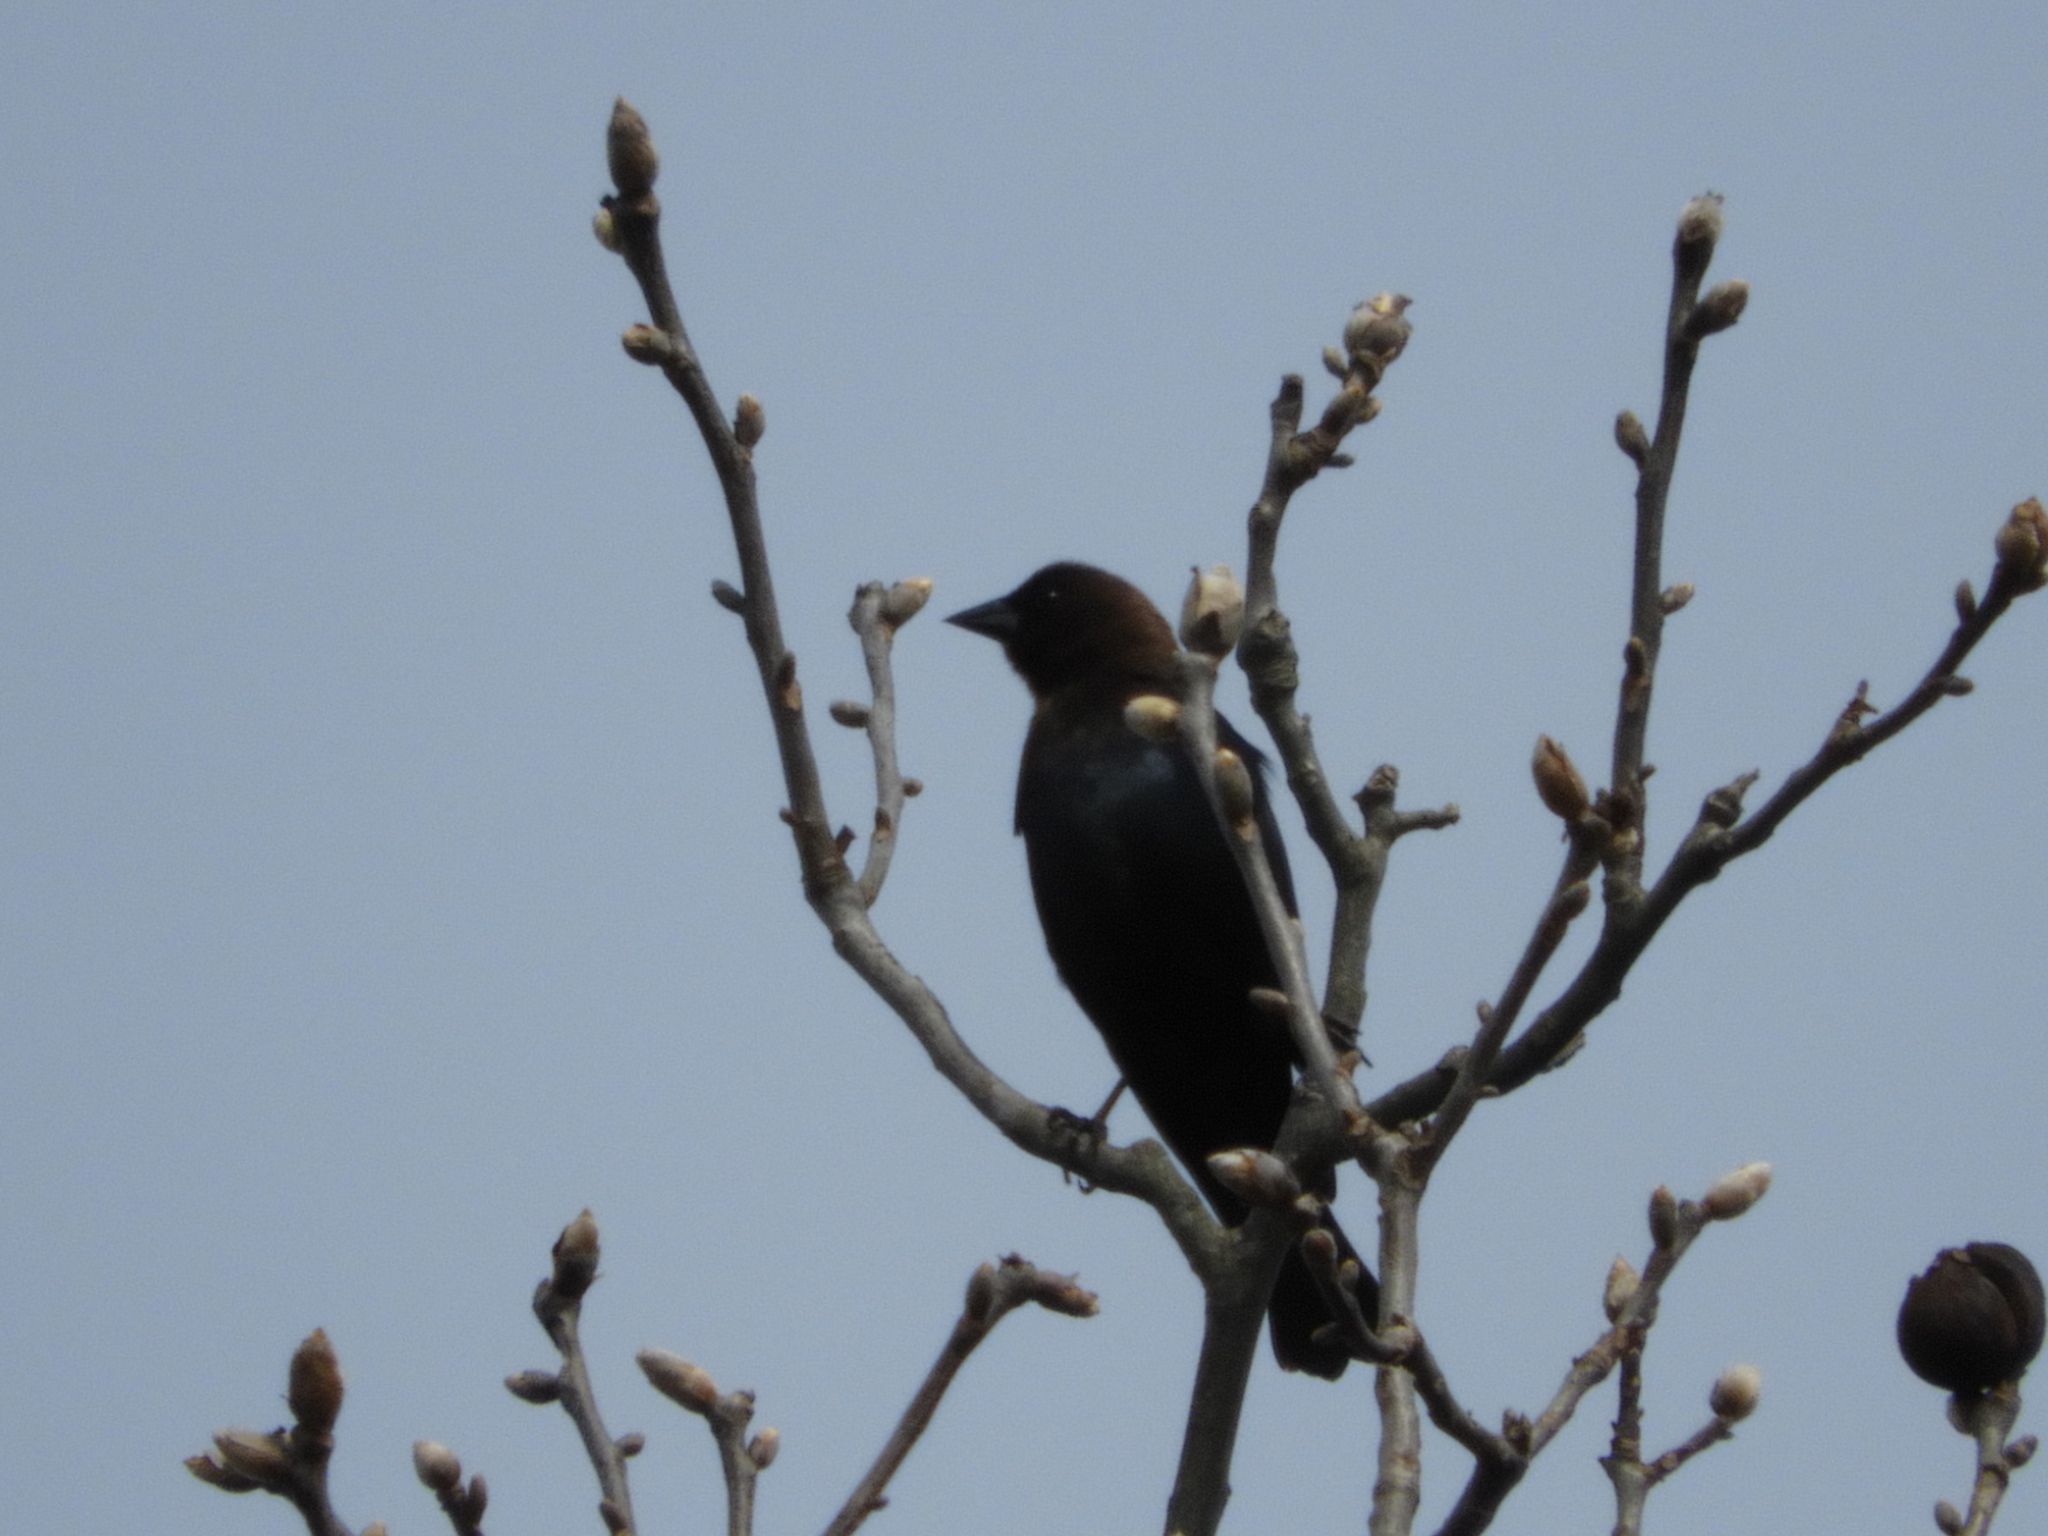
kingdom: Animalia
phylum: Chordata
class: Aves
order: Passeriformes
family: Icteridae
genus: Molothrus
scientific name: Molothrus ater
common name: Brown-headed cowbird
